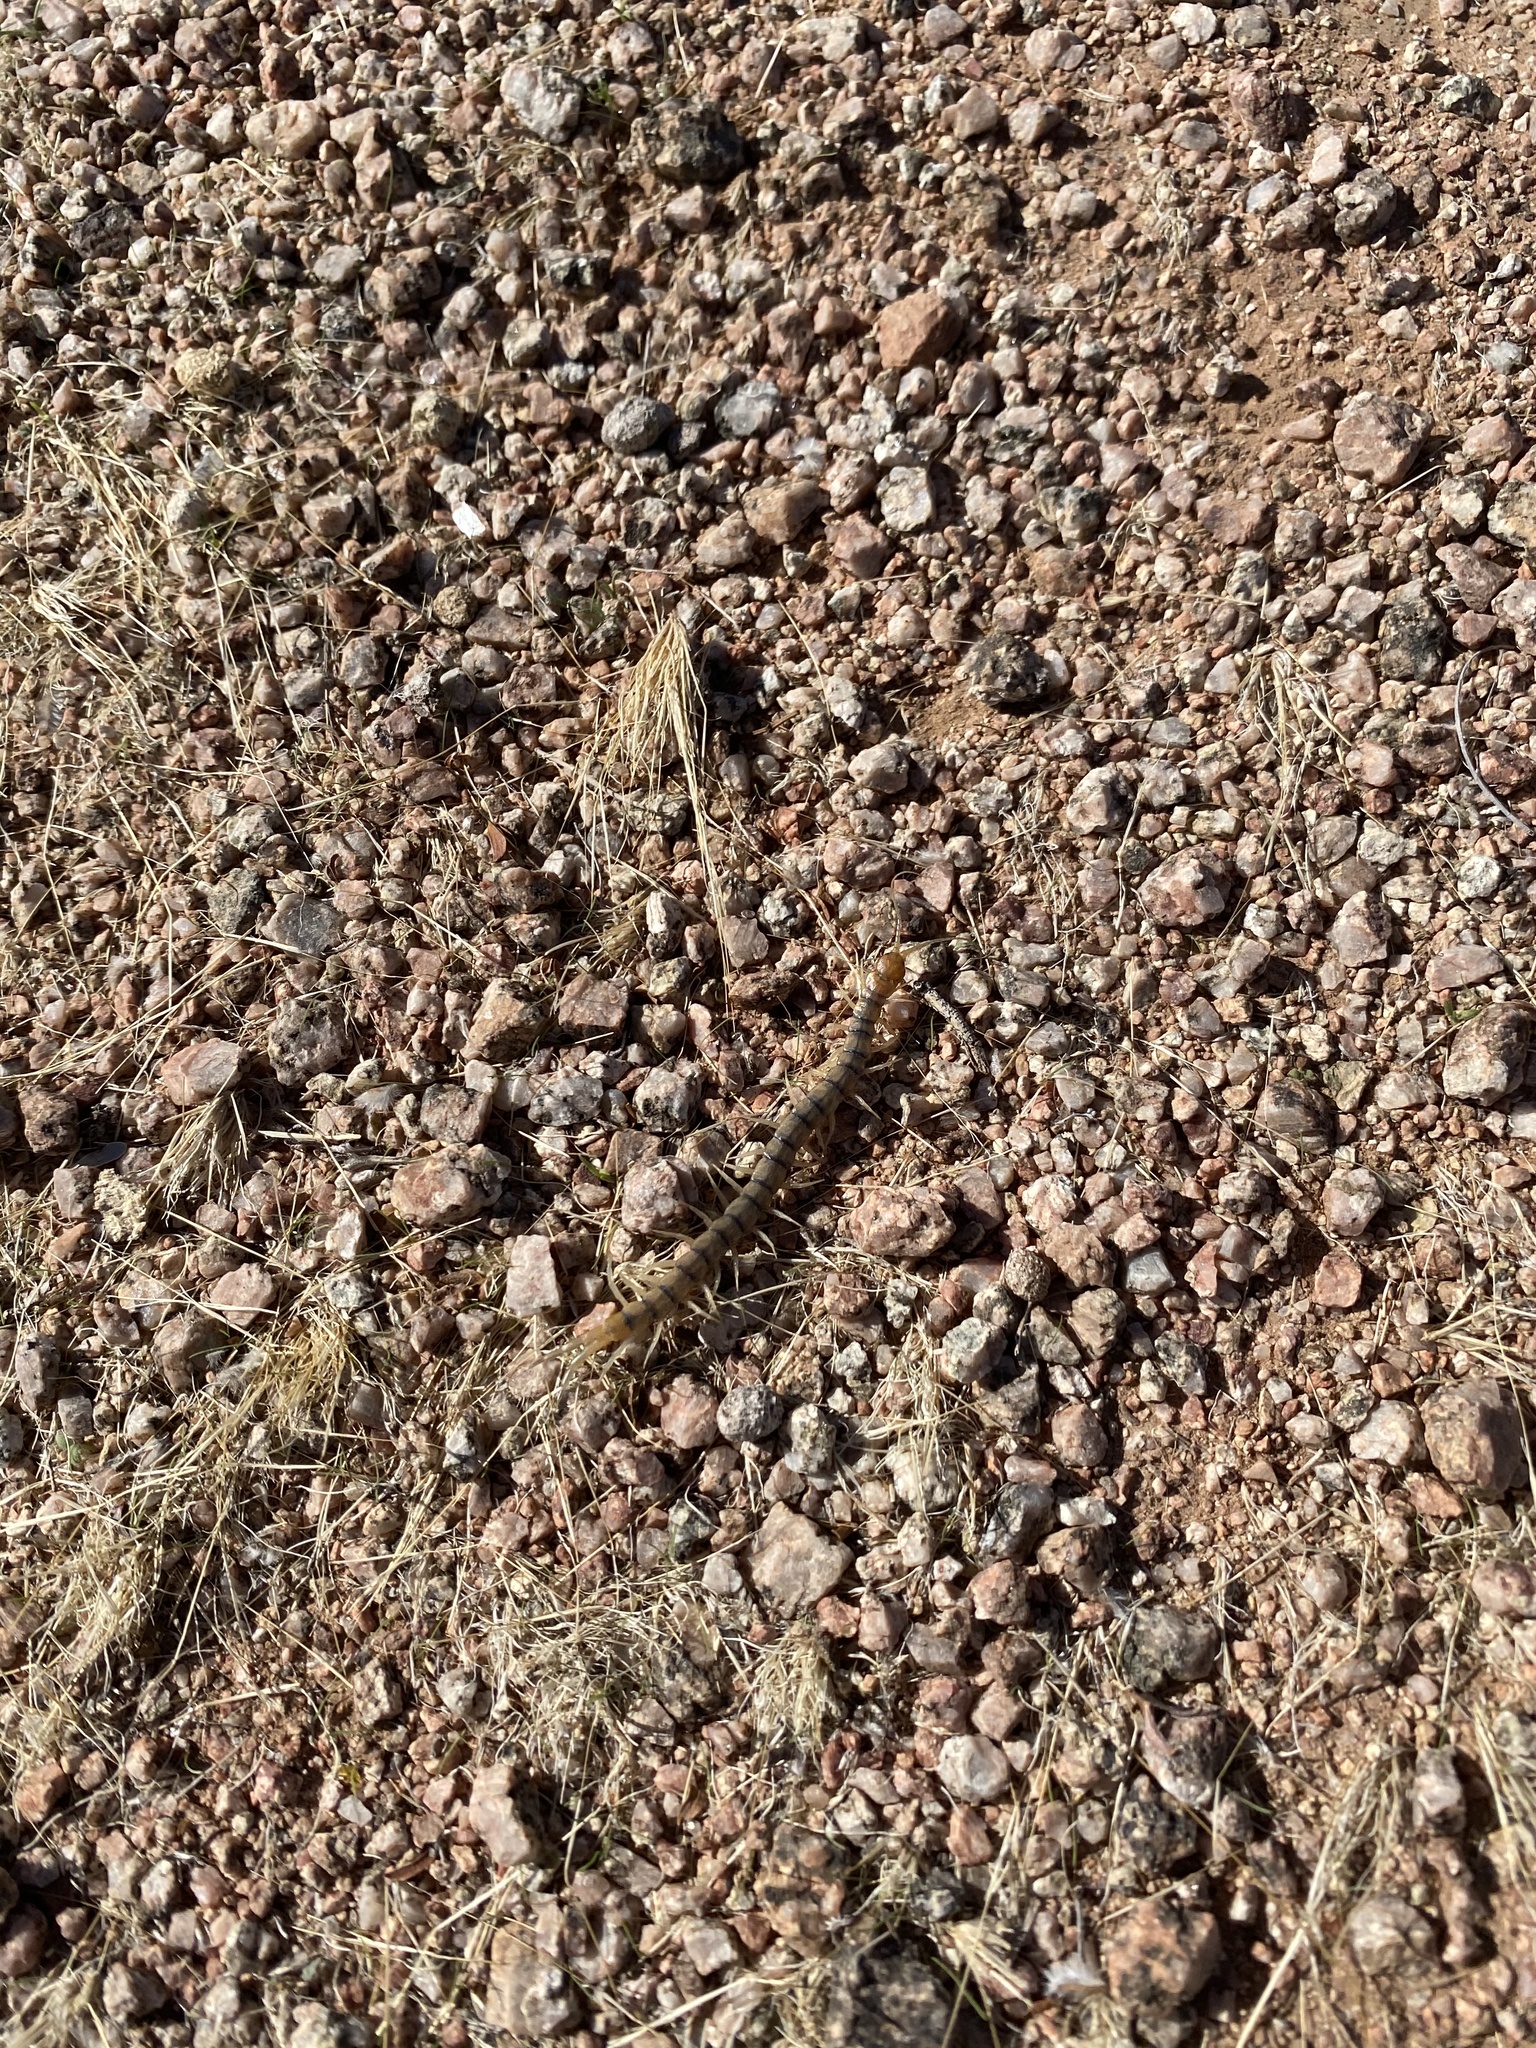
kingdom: Animalia
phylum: Arthropoda
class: Chilopoda
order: Scolopendromorpha
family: Scolopendridae
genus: Scolopendra
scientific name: Scolopendra polymorpha
